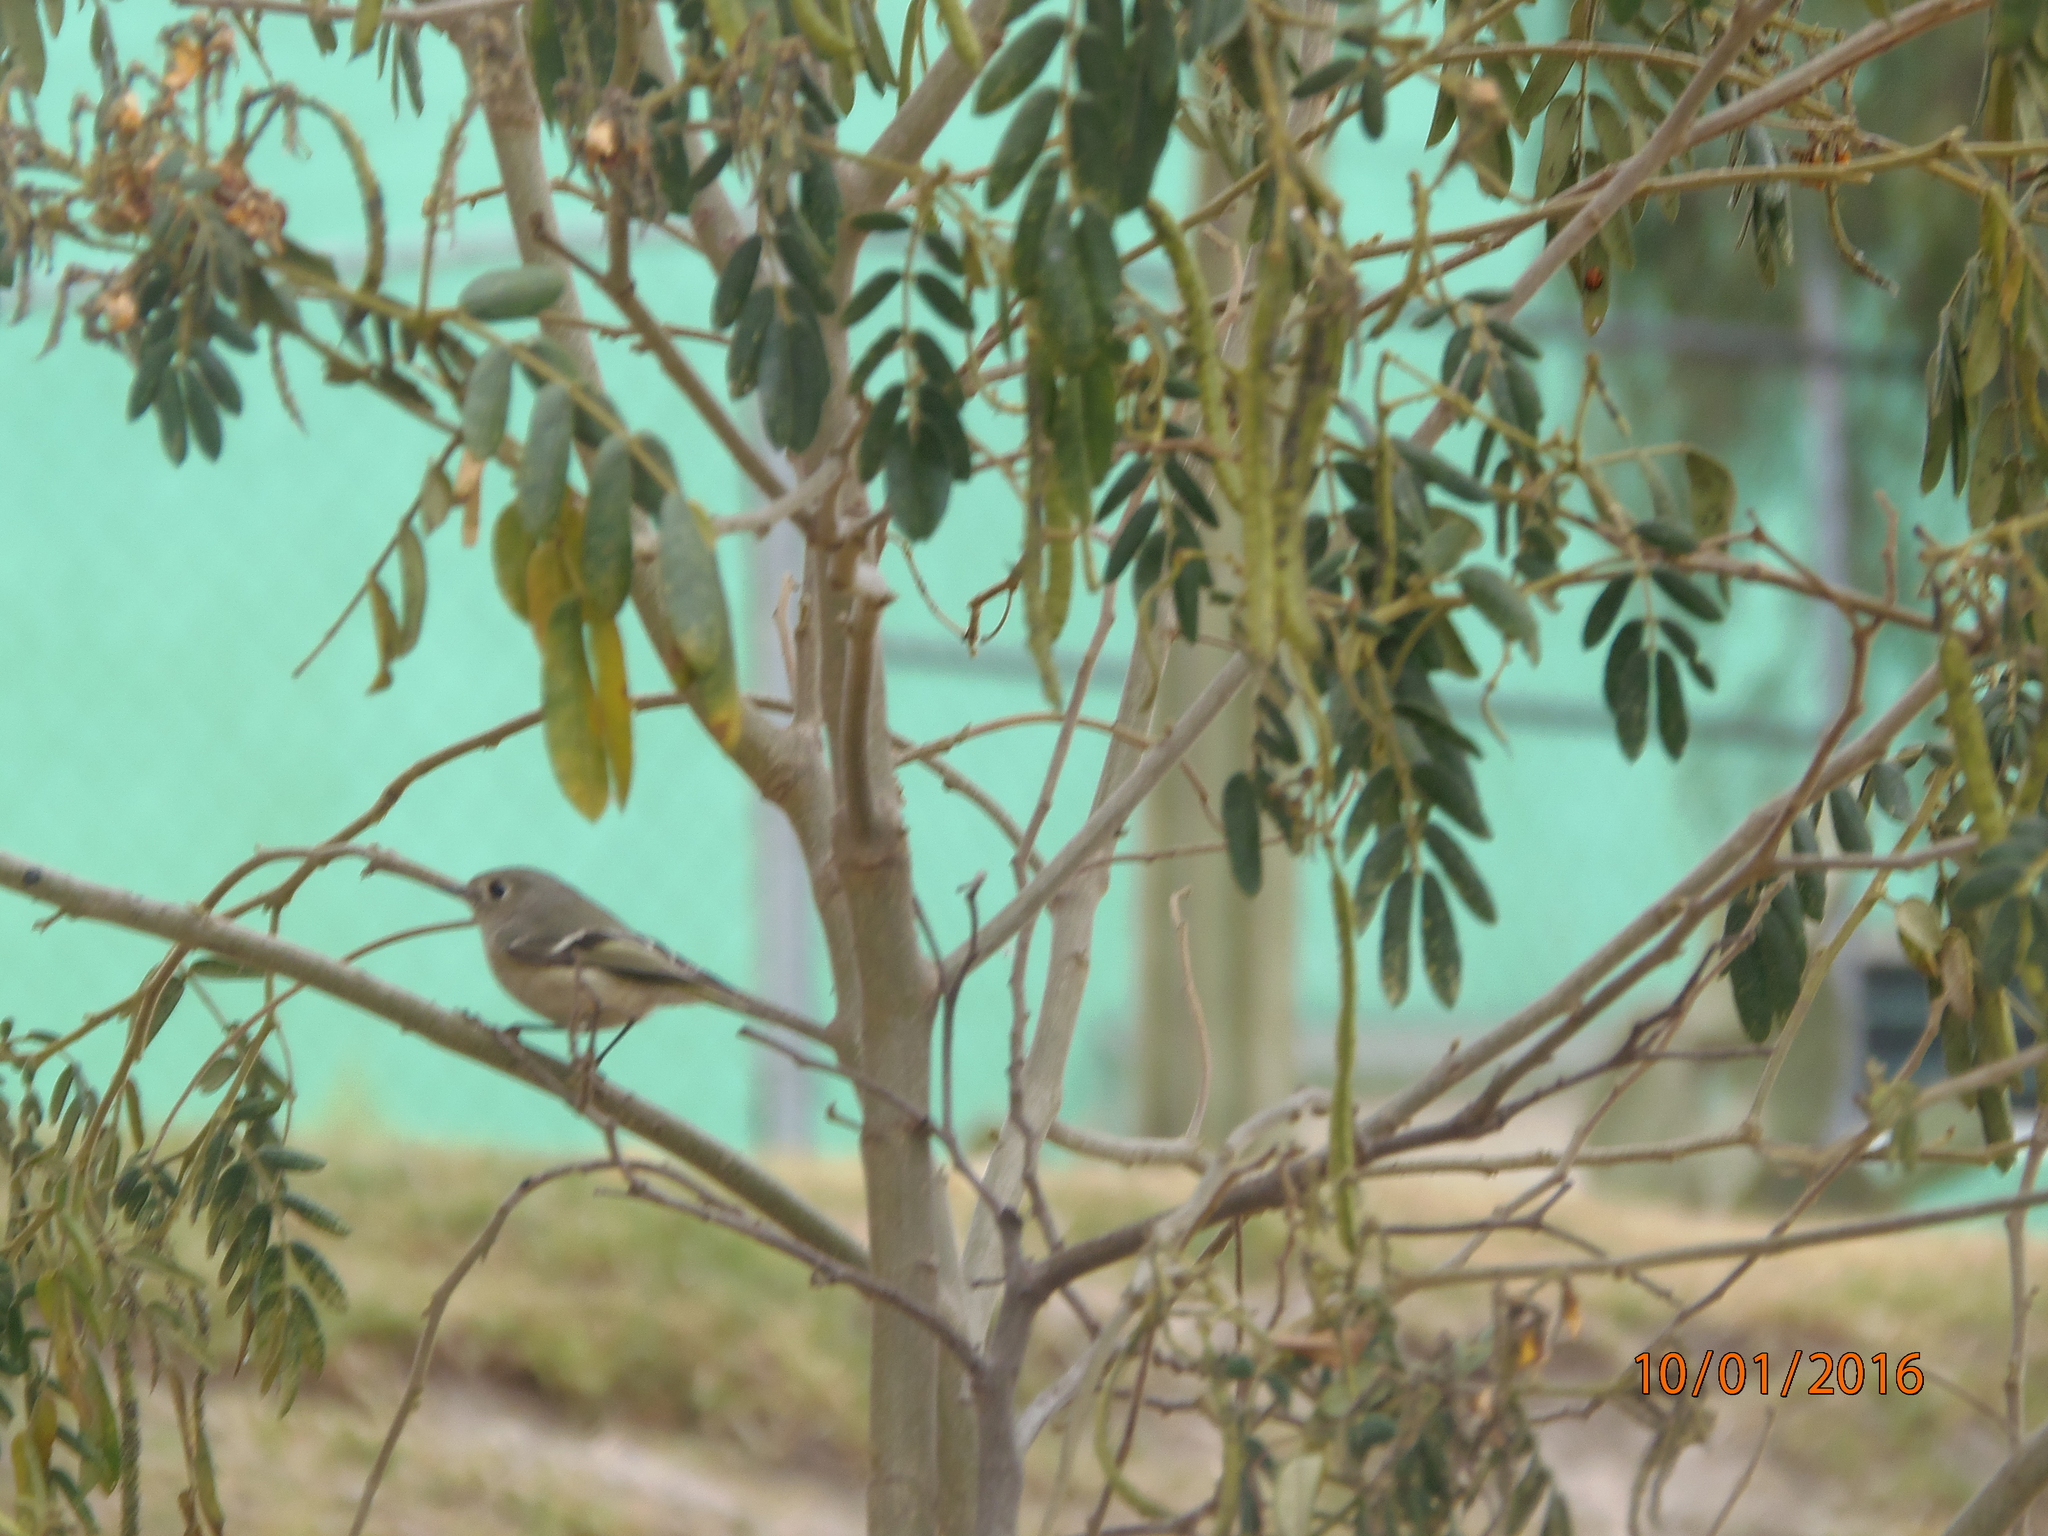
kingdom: Animalia
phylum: Chordata
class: Aves
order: Passeriformes
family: Regulidae
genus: Regulus
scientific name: Regulus calendula
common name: Ruby-crowned kinglet
